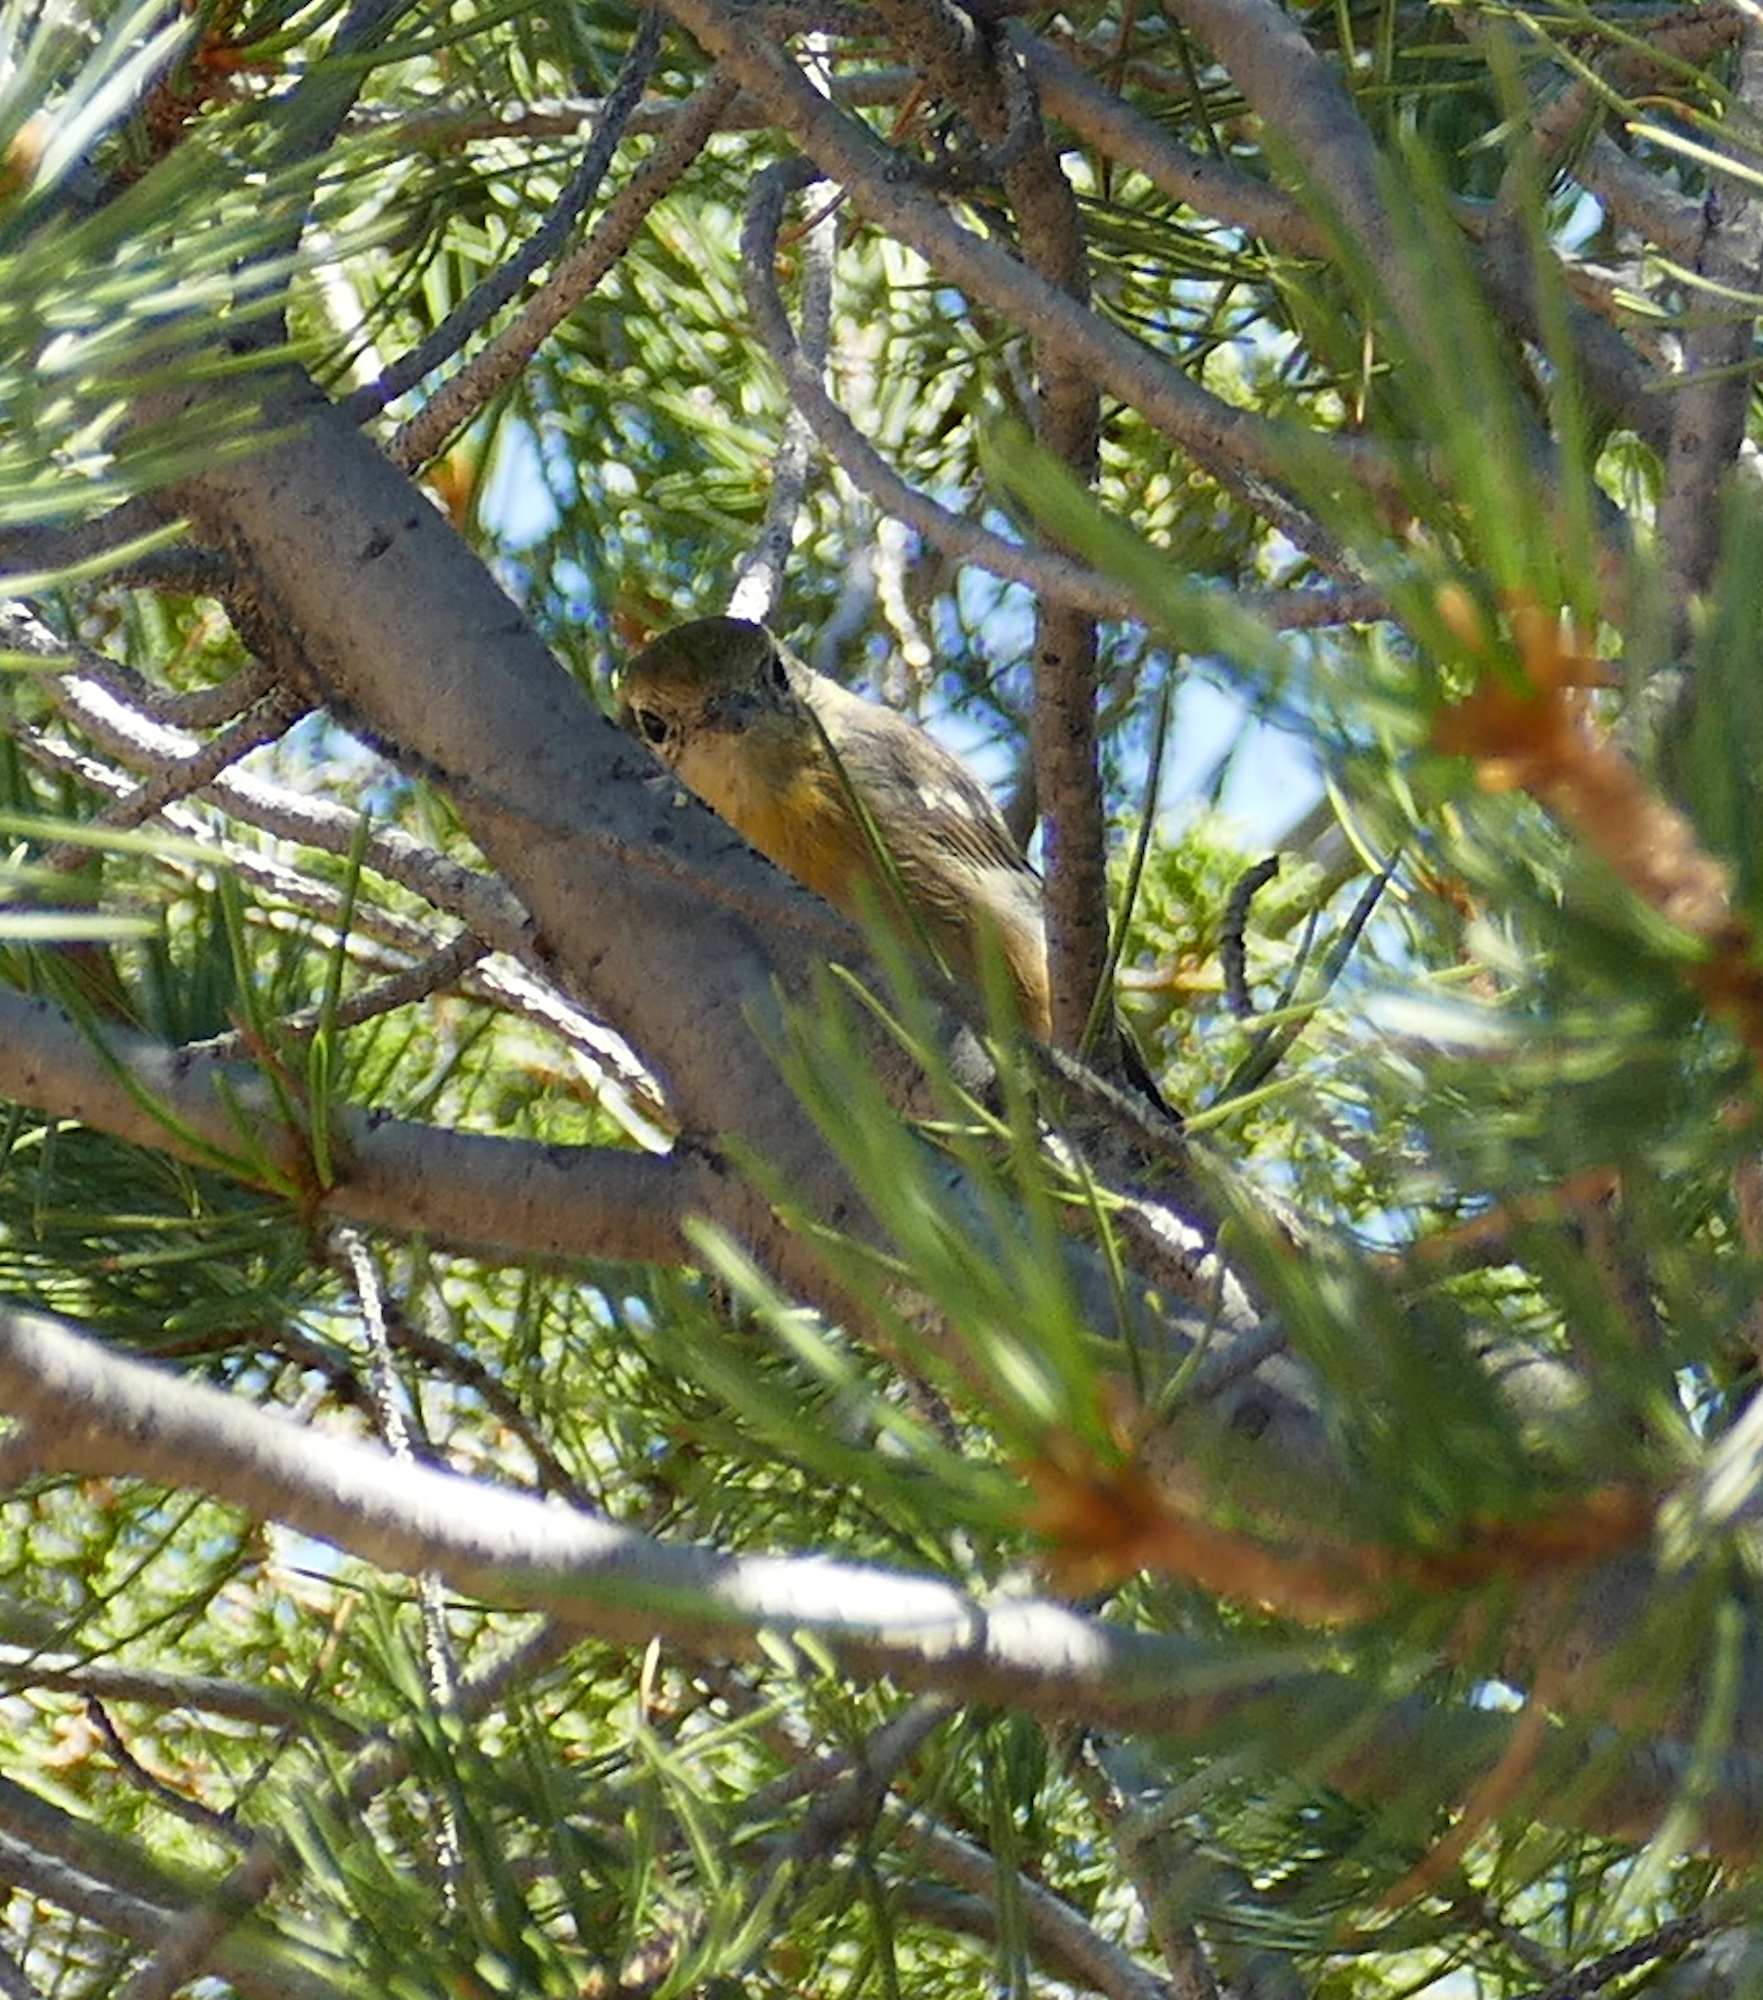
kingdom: Animalia
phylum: Chordata
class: Aves
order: Passeriformes
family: Peucedramidae
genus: Peucedramus
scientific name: Peucedramus taeniatus
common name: Olive warbler
